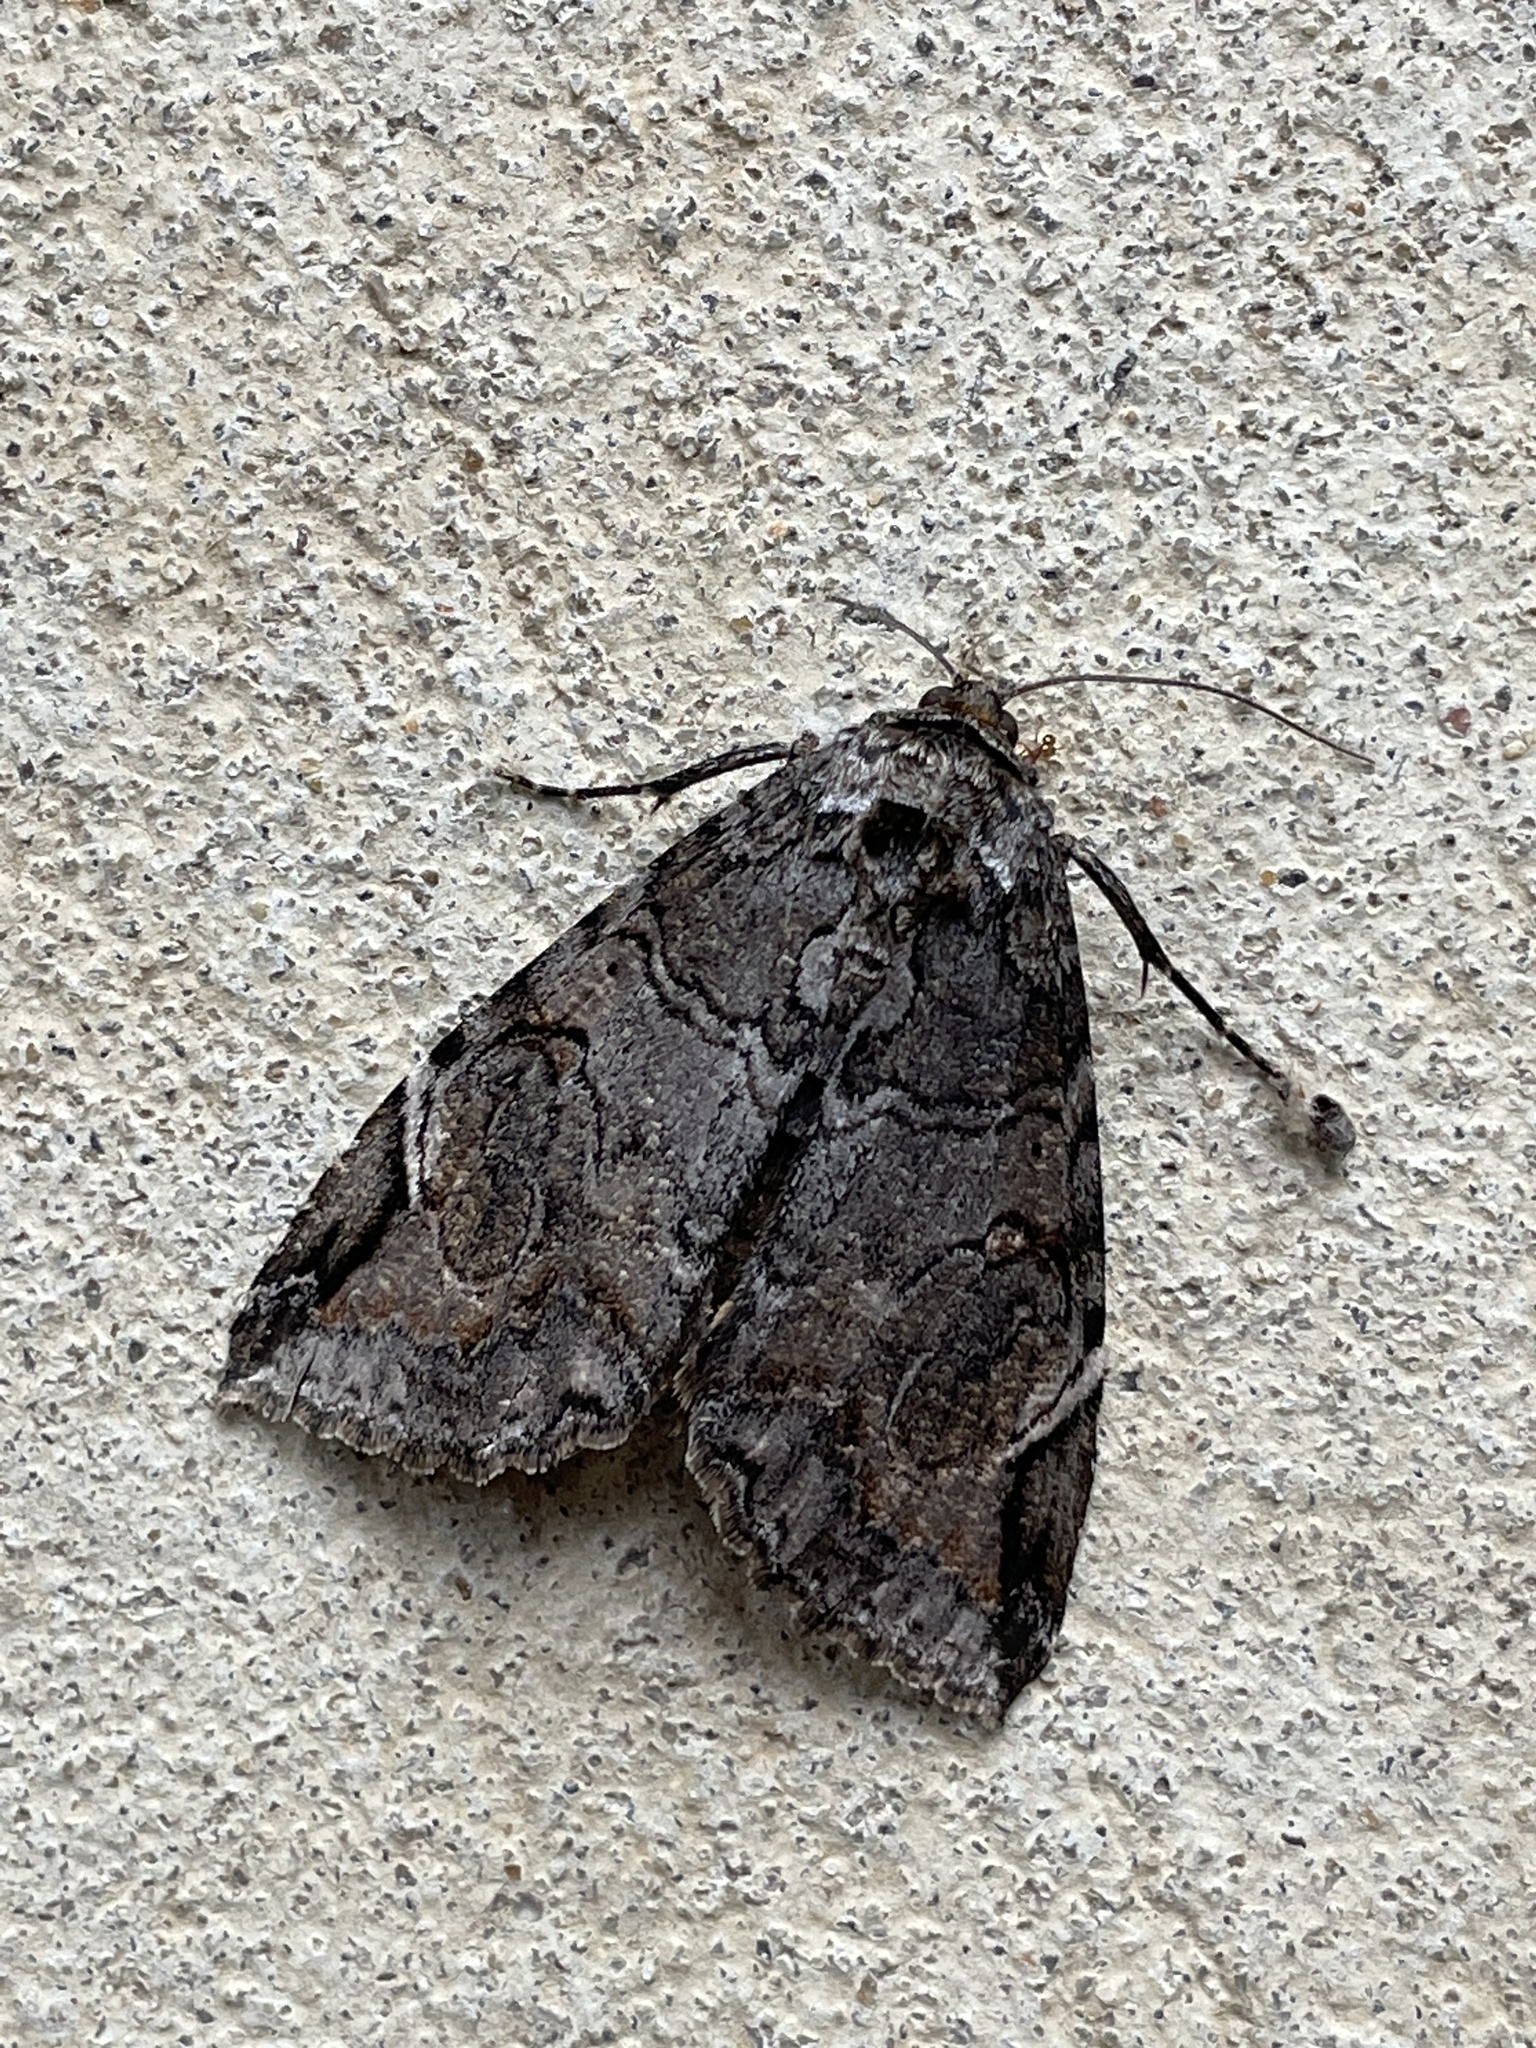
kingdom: Animalia
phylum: Arthropoda
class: Insecta
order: Lepidoptera
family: Erebidae
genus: Euparthenos
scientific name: Euparthenos nubilis
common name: Locust underwing
